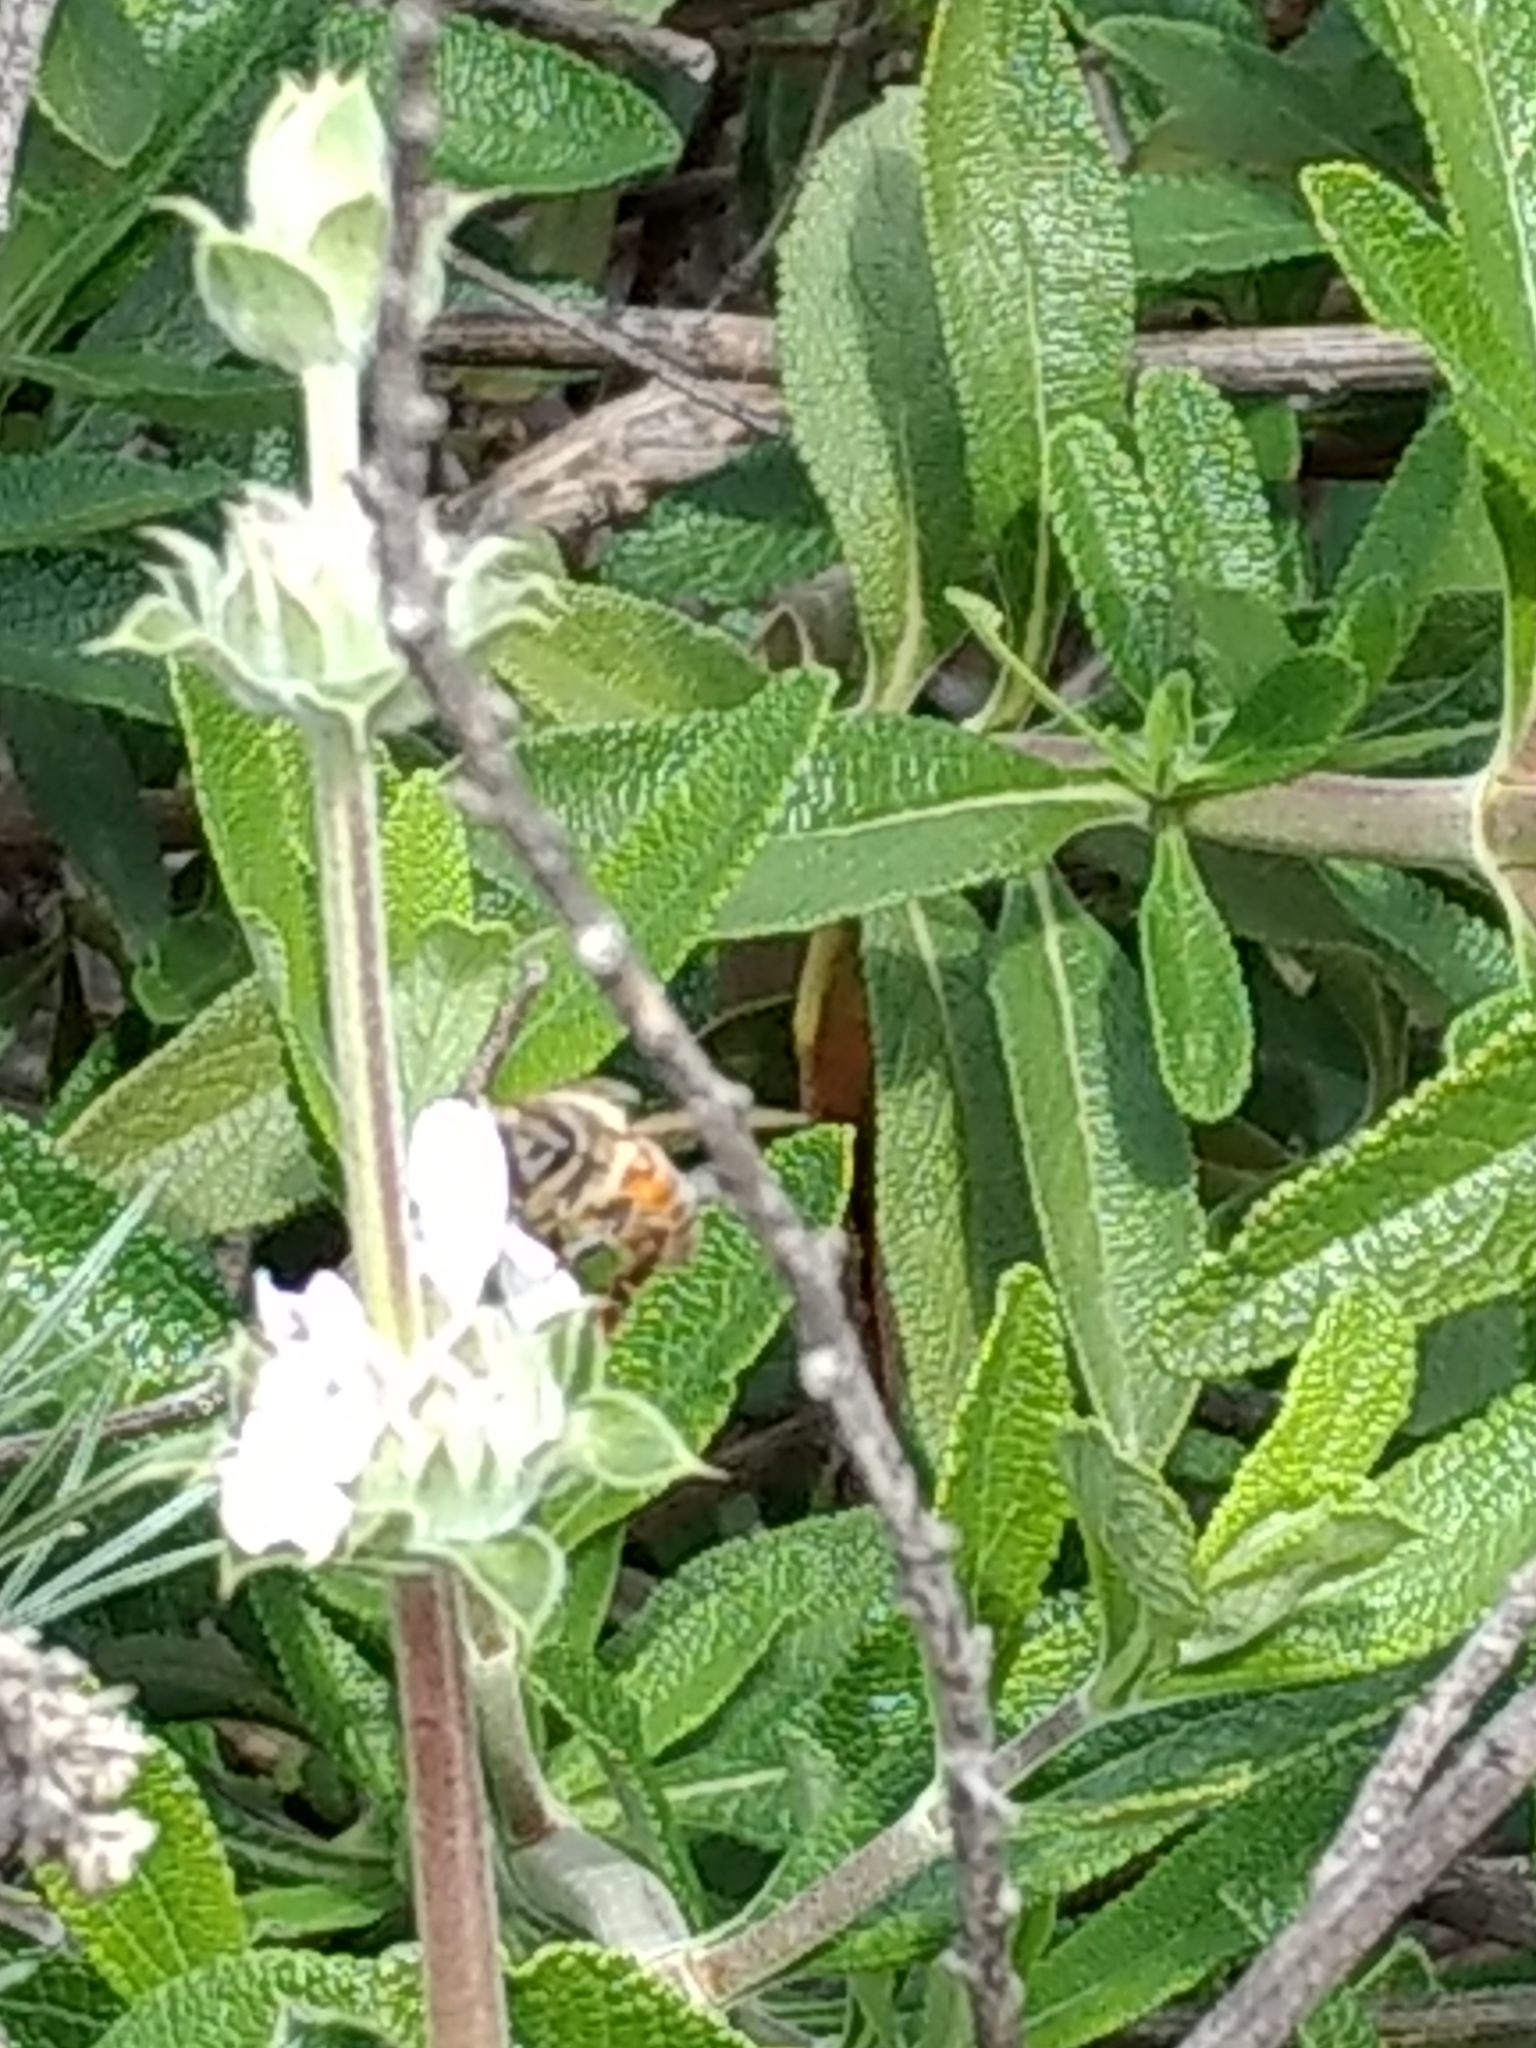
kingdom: Animalia
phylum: Arthropoda
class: Insecta
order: Hymenoptera
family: Apidae
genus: Apis
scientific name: Apis mellifera
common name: Honey bee
